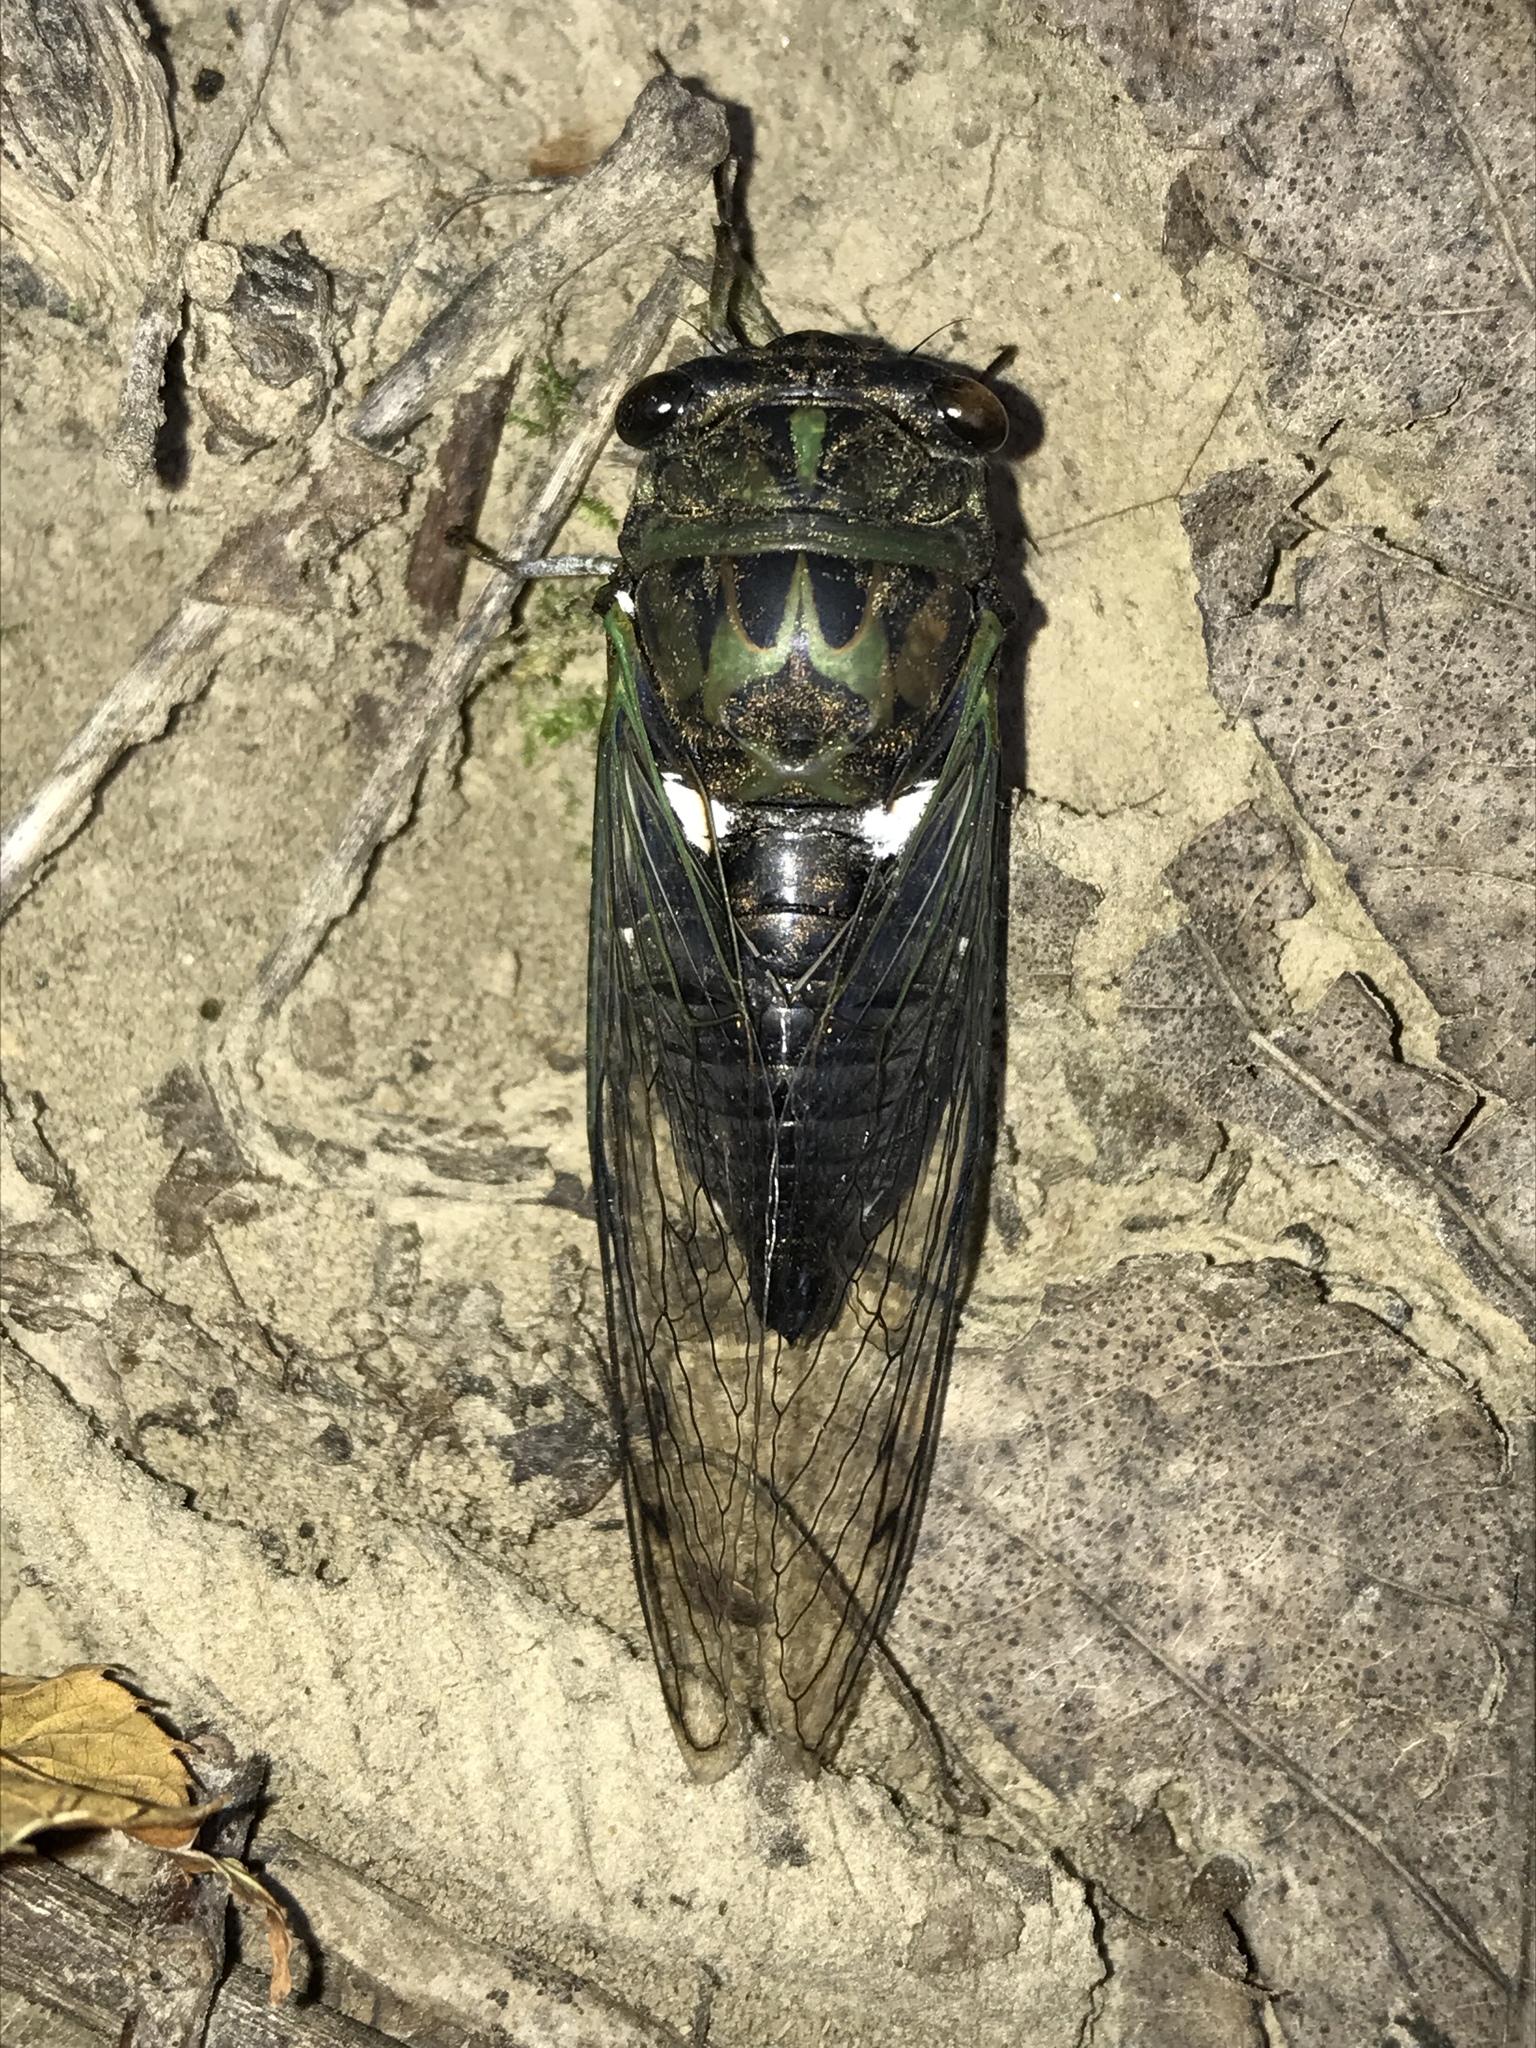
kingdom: Animalia
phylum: Arthropoda
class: Insecta
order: Hemiptera
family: Cicadidae
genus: Neotibicen
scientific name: Neotibicen pruinosus
